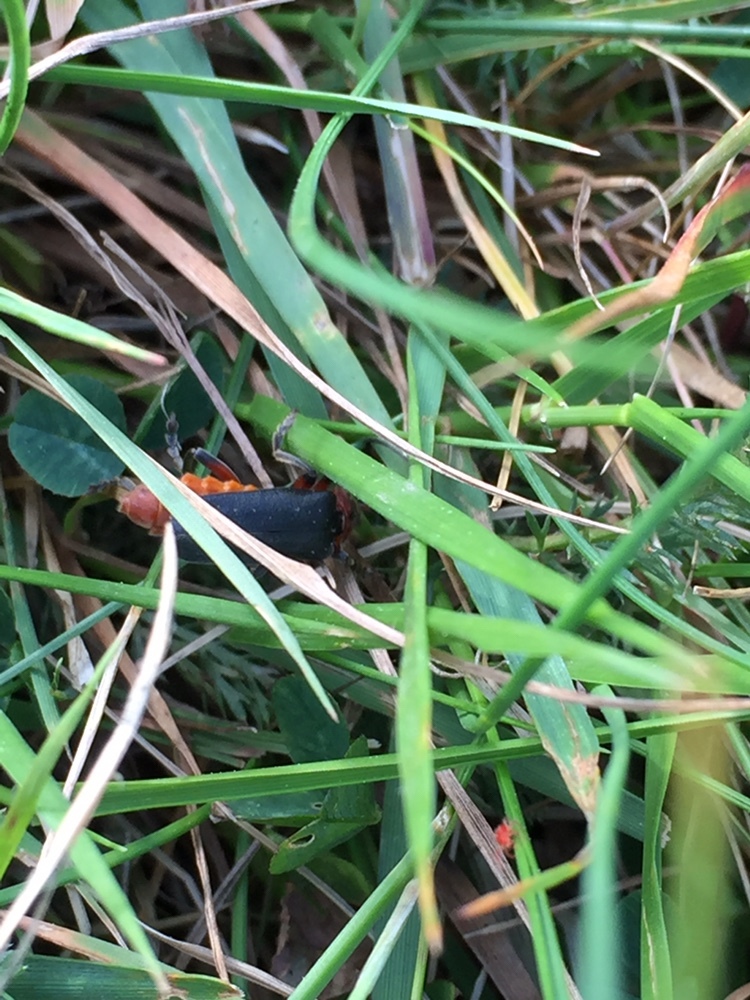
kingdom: Animalia
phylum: Arthropoda
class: Insecta
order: Coleoptera
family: Cantharidae
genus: Cantharis
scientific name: Cantharis rustica
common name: Soldier beetle
